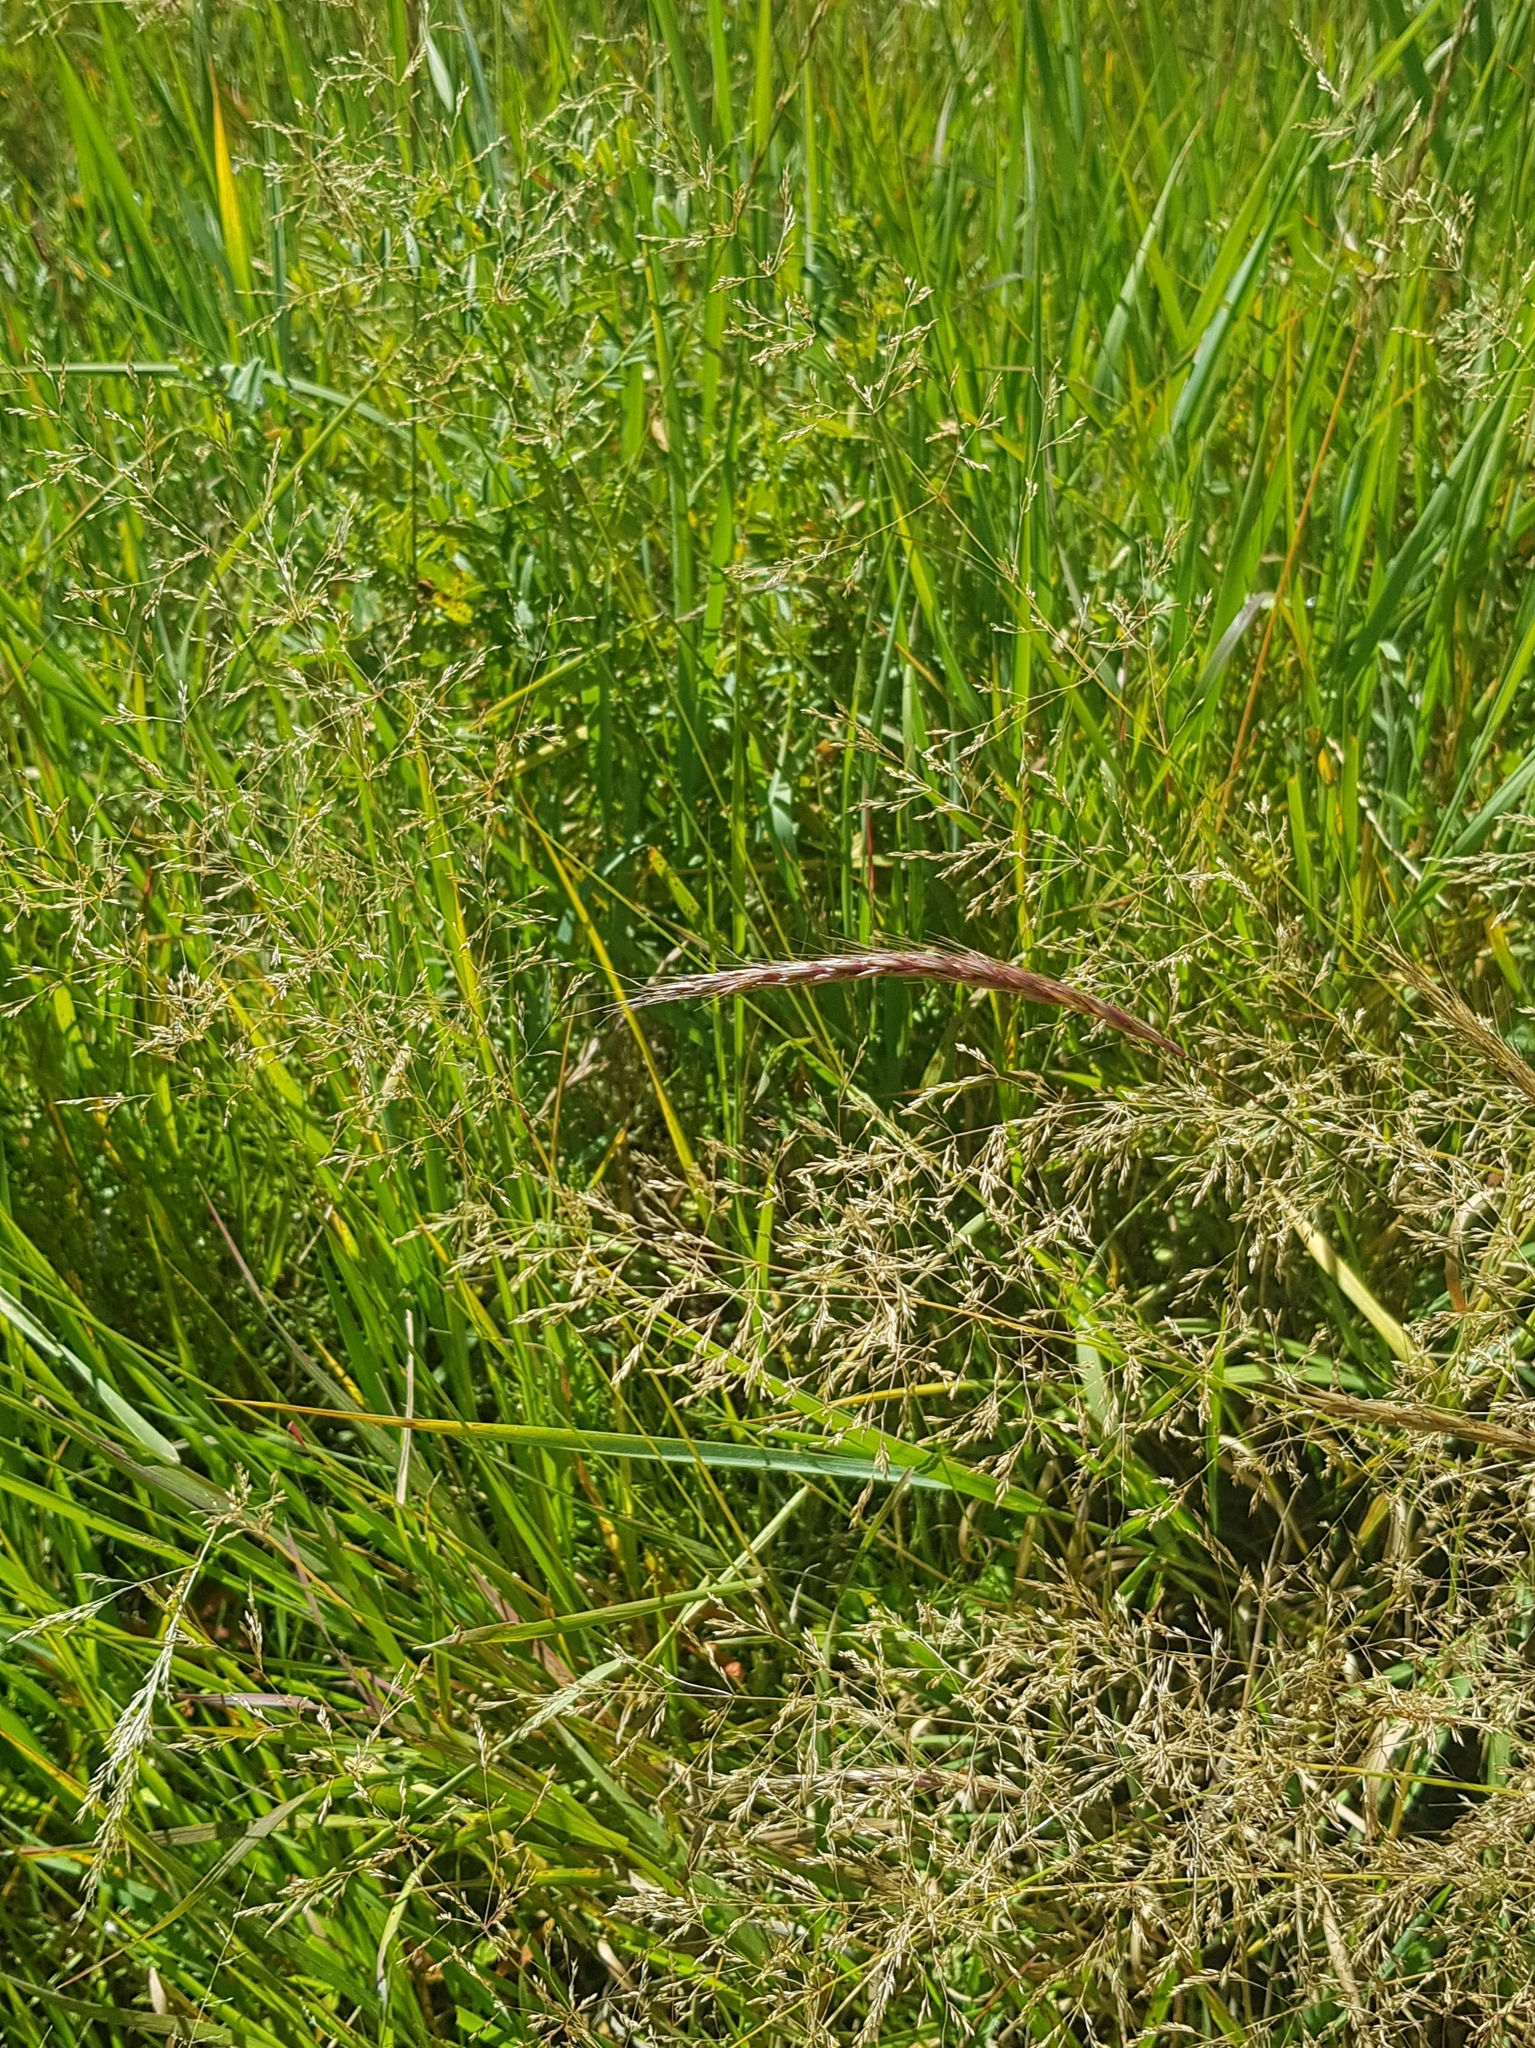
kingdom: Plantae
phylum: Tracheophyta
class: Liliopsida
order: Poales
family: Poaceae
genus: Agrostis
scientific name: Agrostis clavata
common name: Clavate bent
